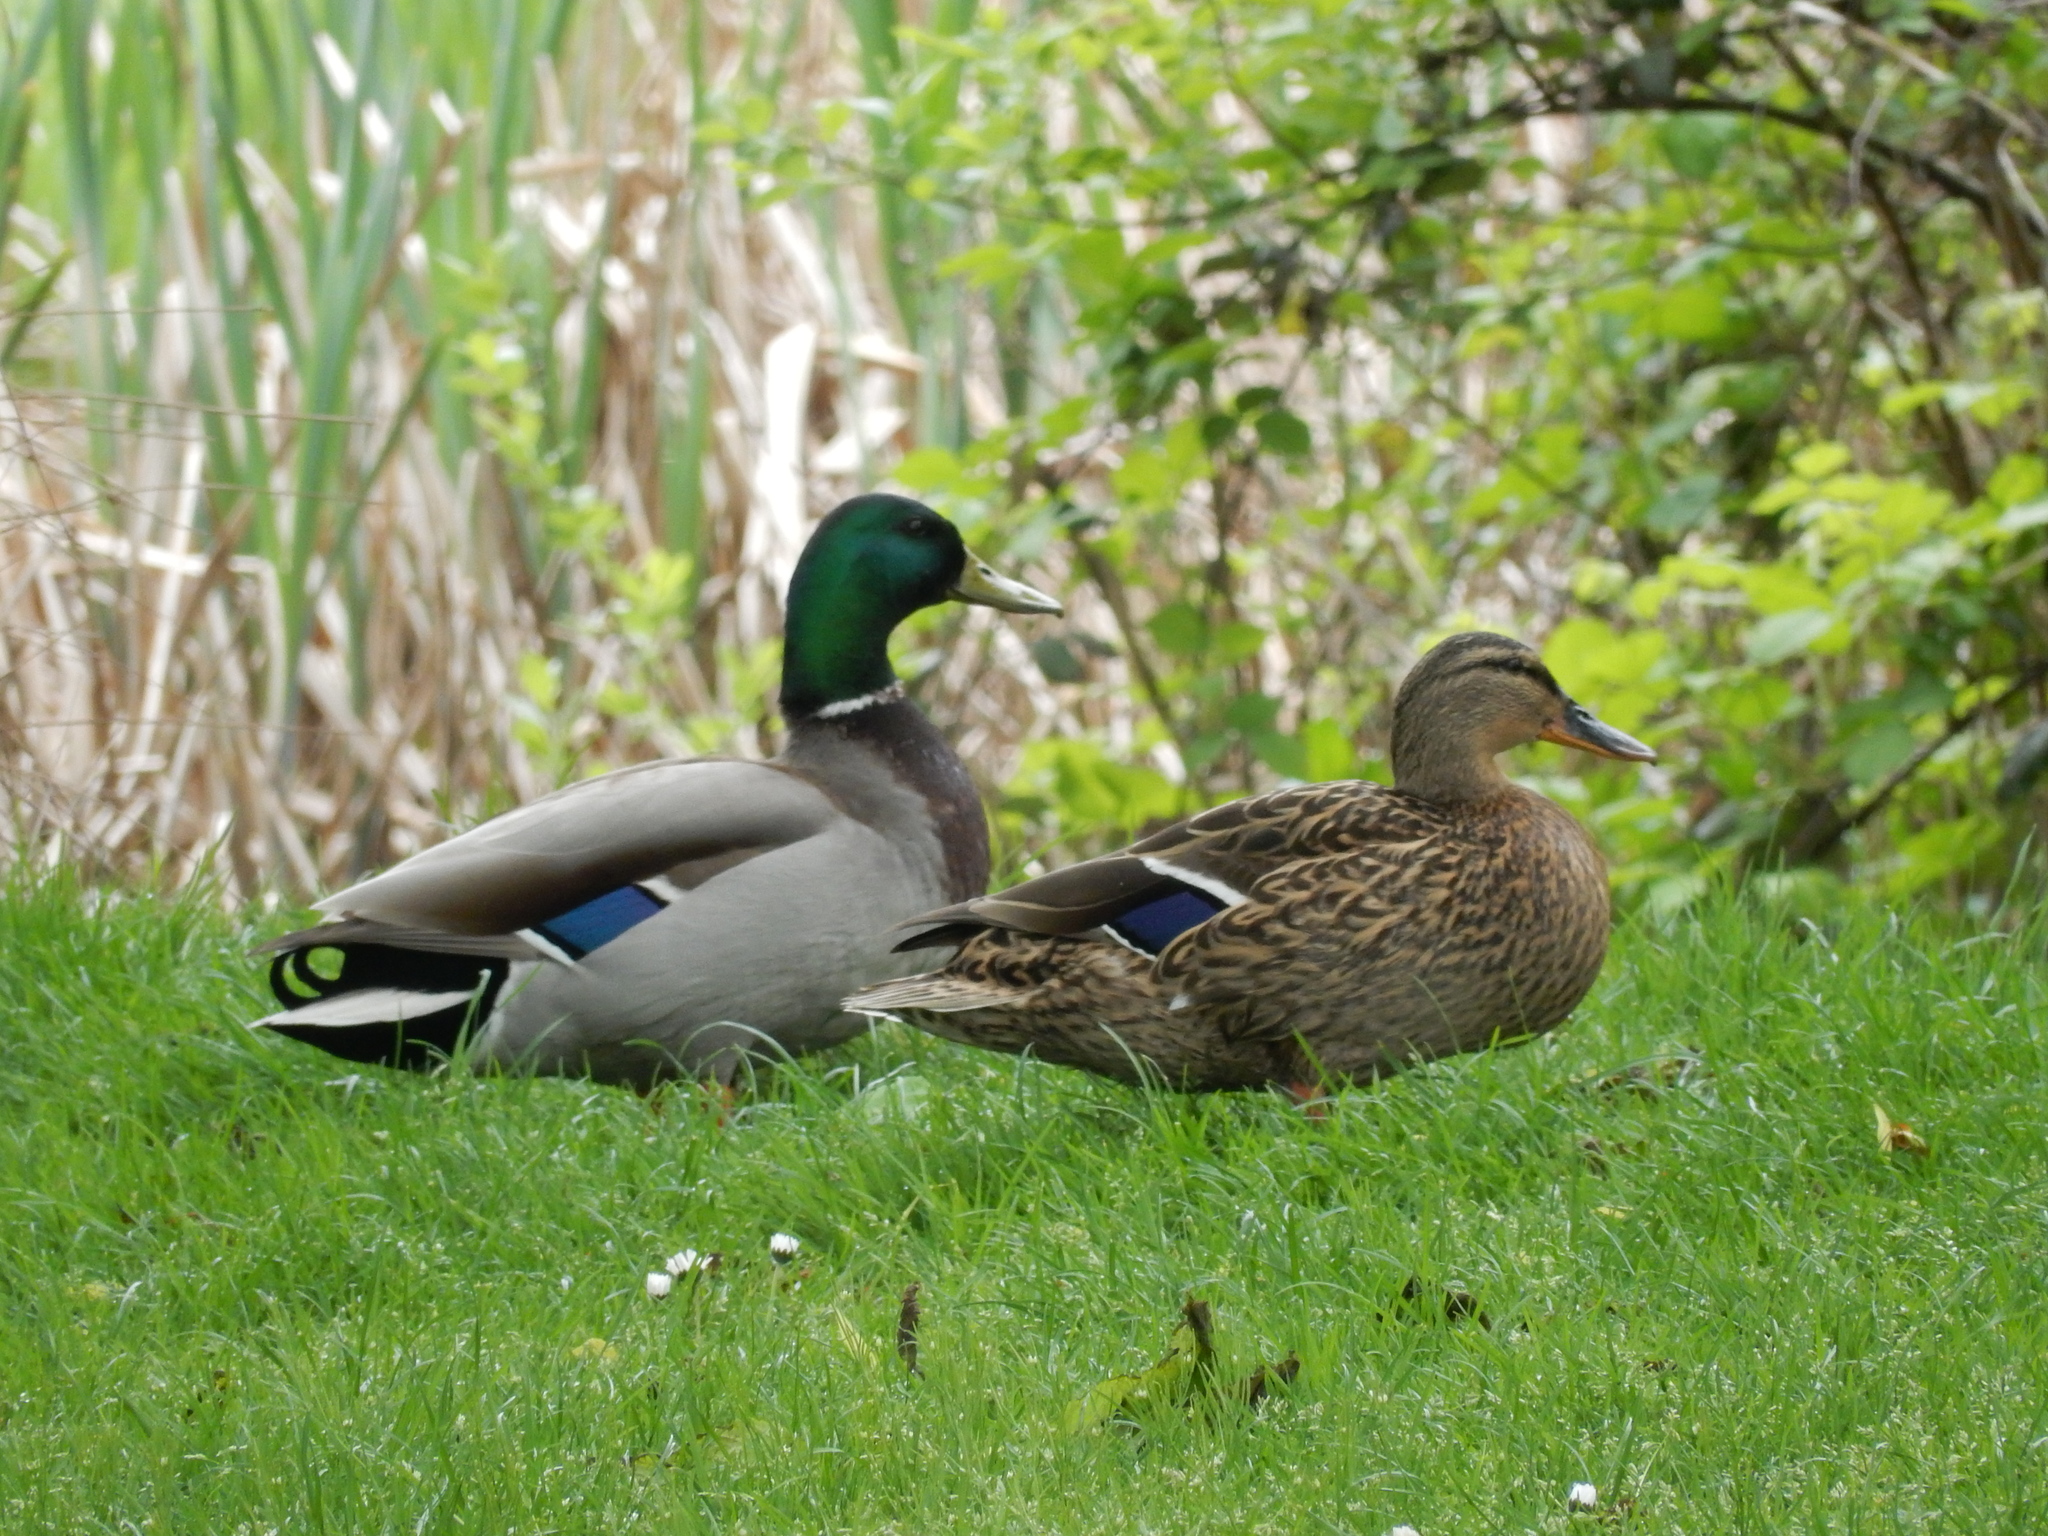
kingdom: Animalia
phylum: Chordata
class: Aves
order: Anseriformes
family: Anatidae
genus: Anas
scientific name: Anas platyrhynchos
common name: Mallard
